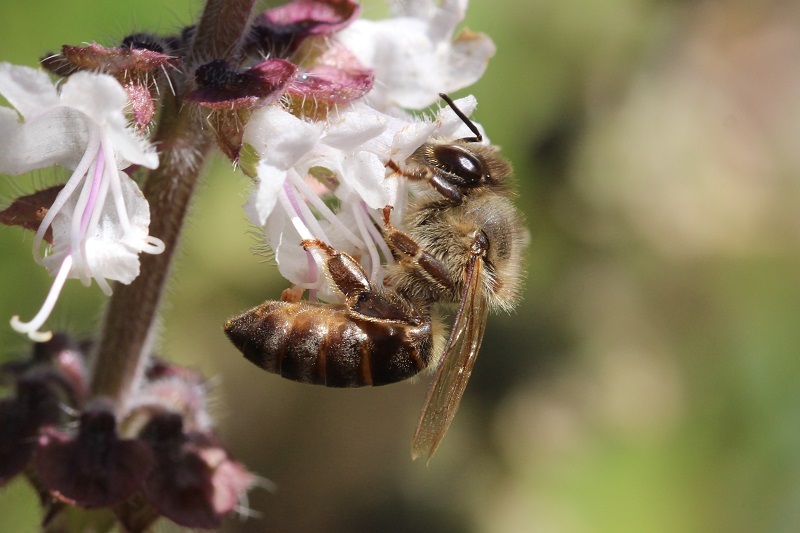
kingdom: Animalia
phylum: Arthropoda
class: Insecta
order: Hymenoptera
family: Apidae
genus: Apis
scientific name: Apis mellifera
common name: Honey bee
